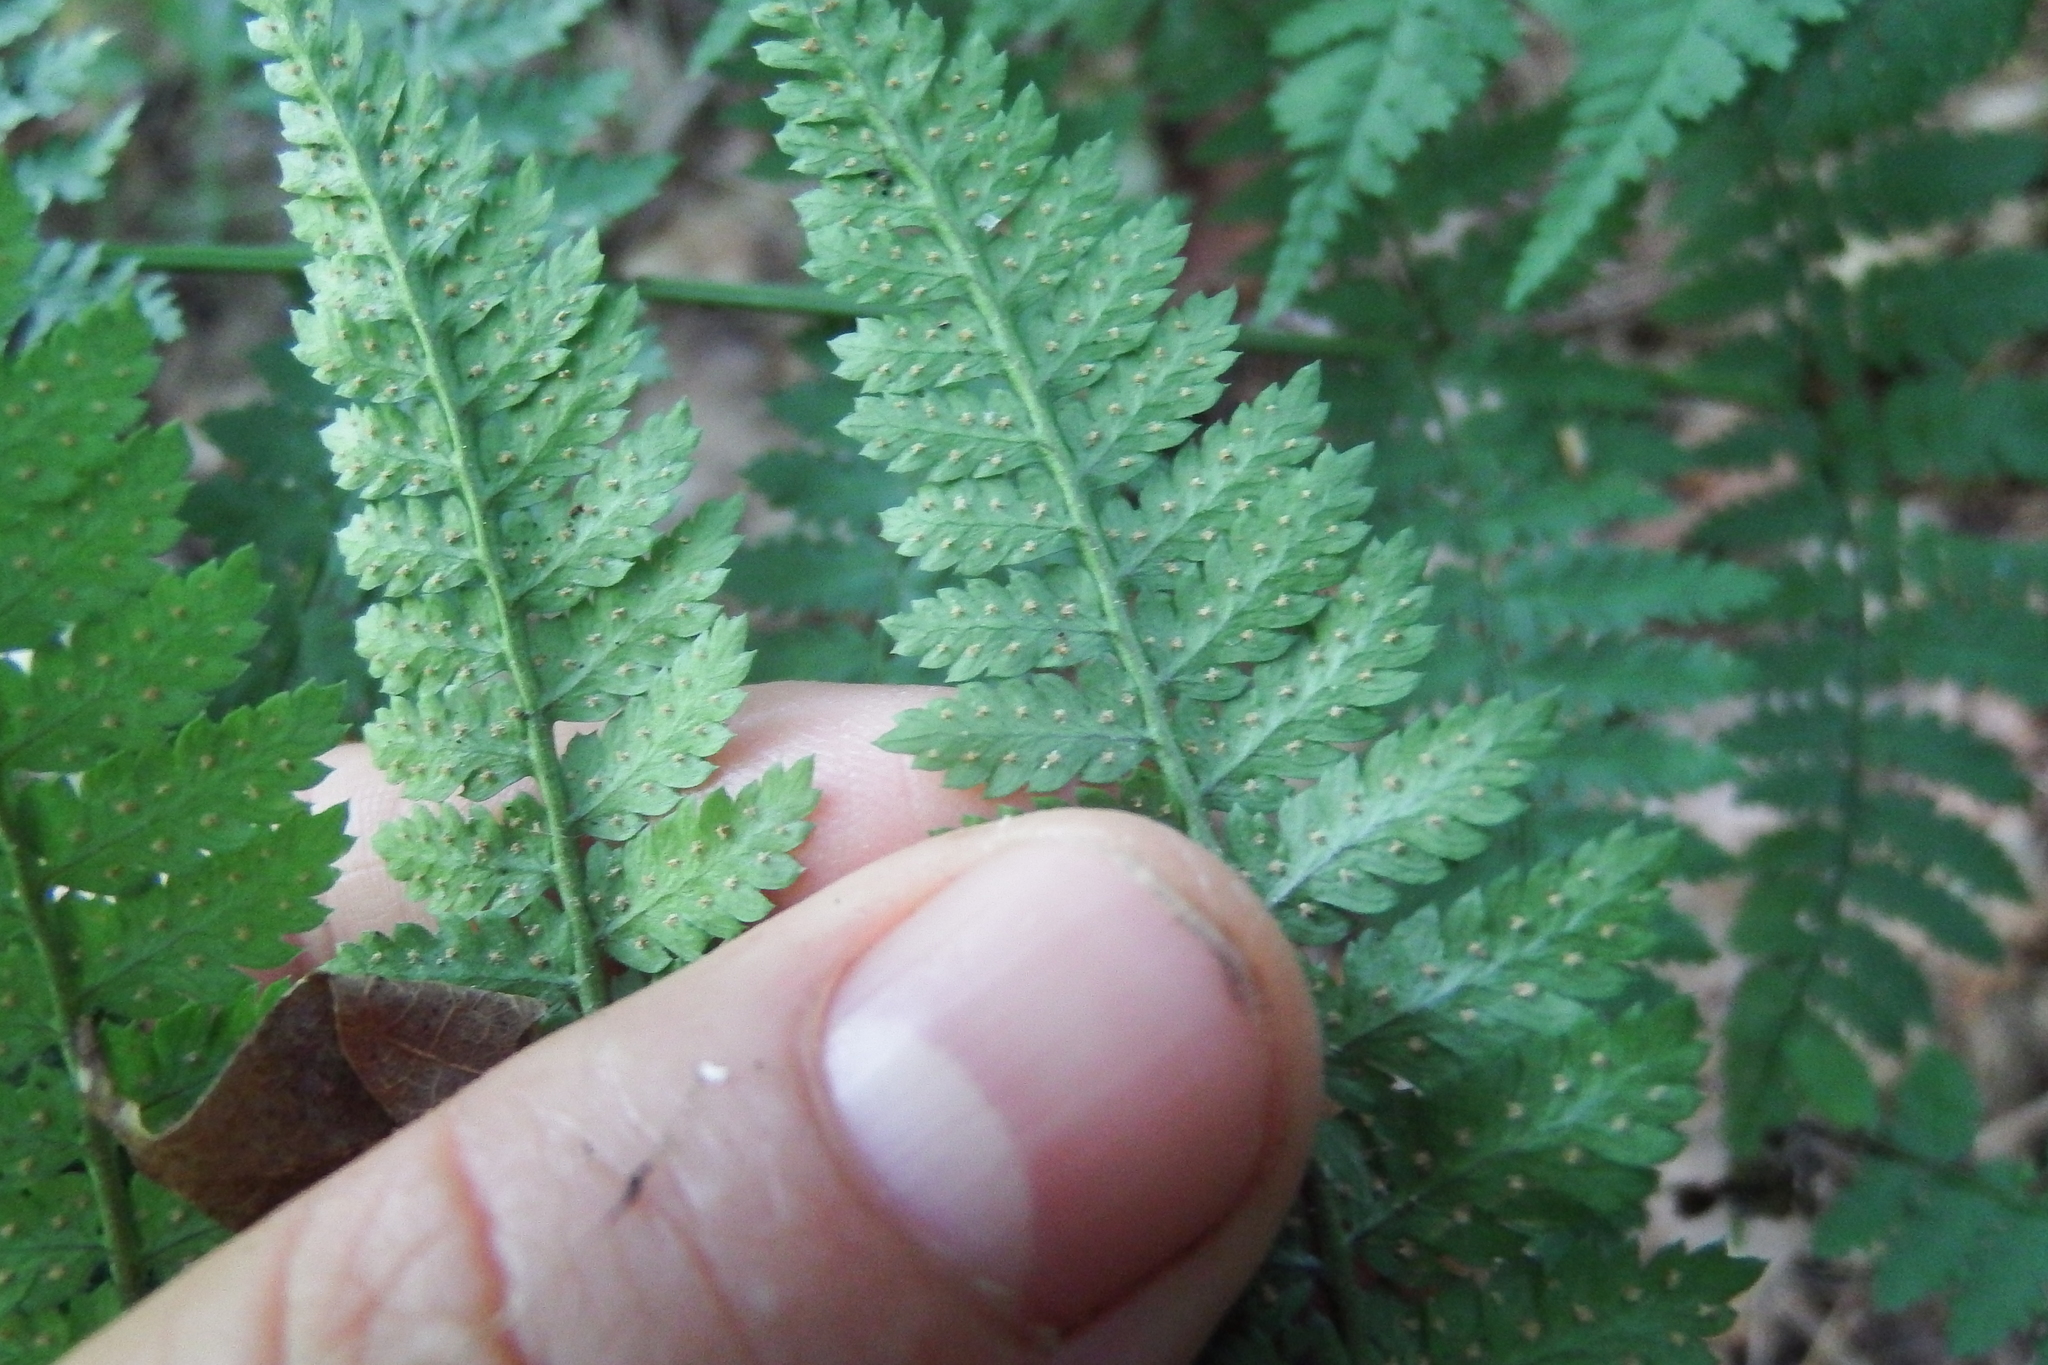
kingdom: Plantae
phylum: Tracheophyta
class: Polypodiopsida
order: Polypodiales
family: Dryopteridaceae
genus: Dryopteris
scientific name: Dryopteris intermedia
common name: Evergreen wood fern
